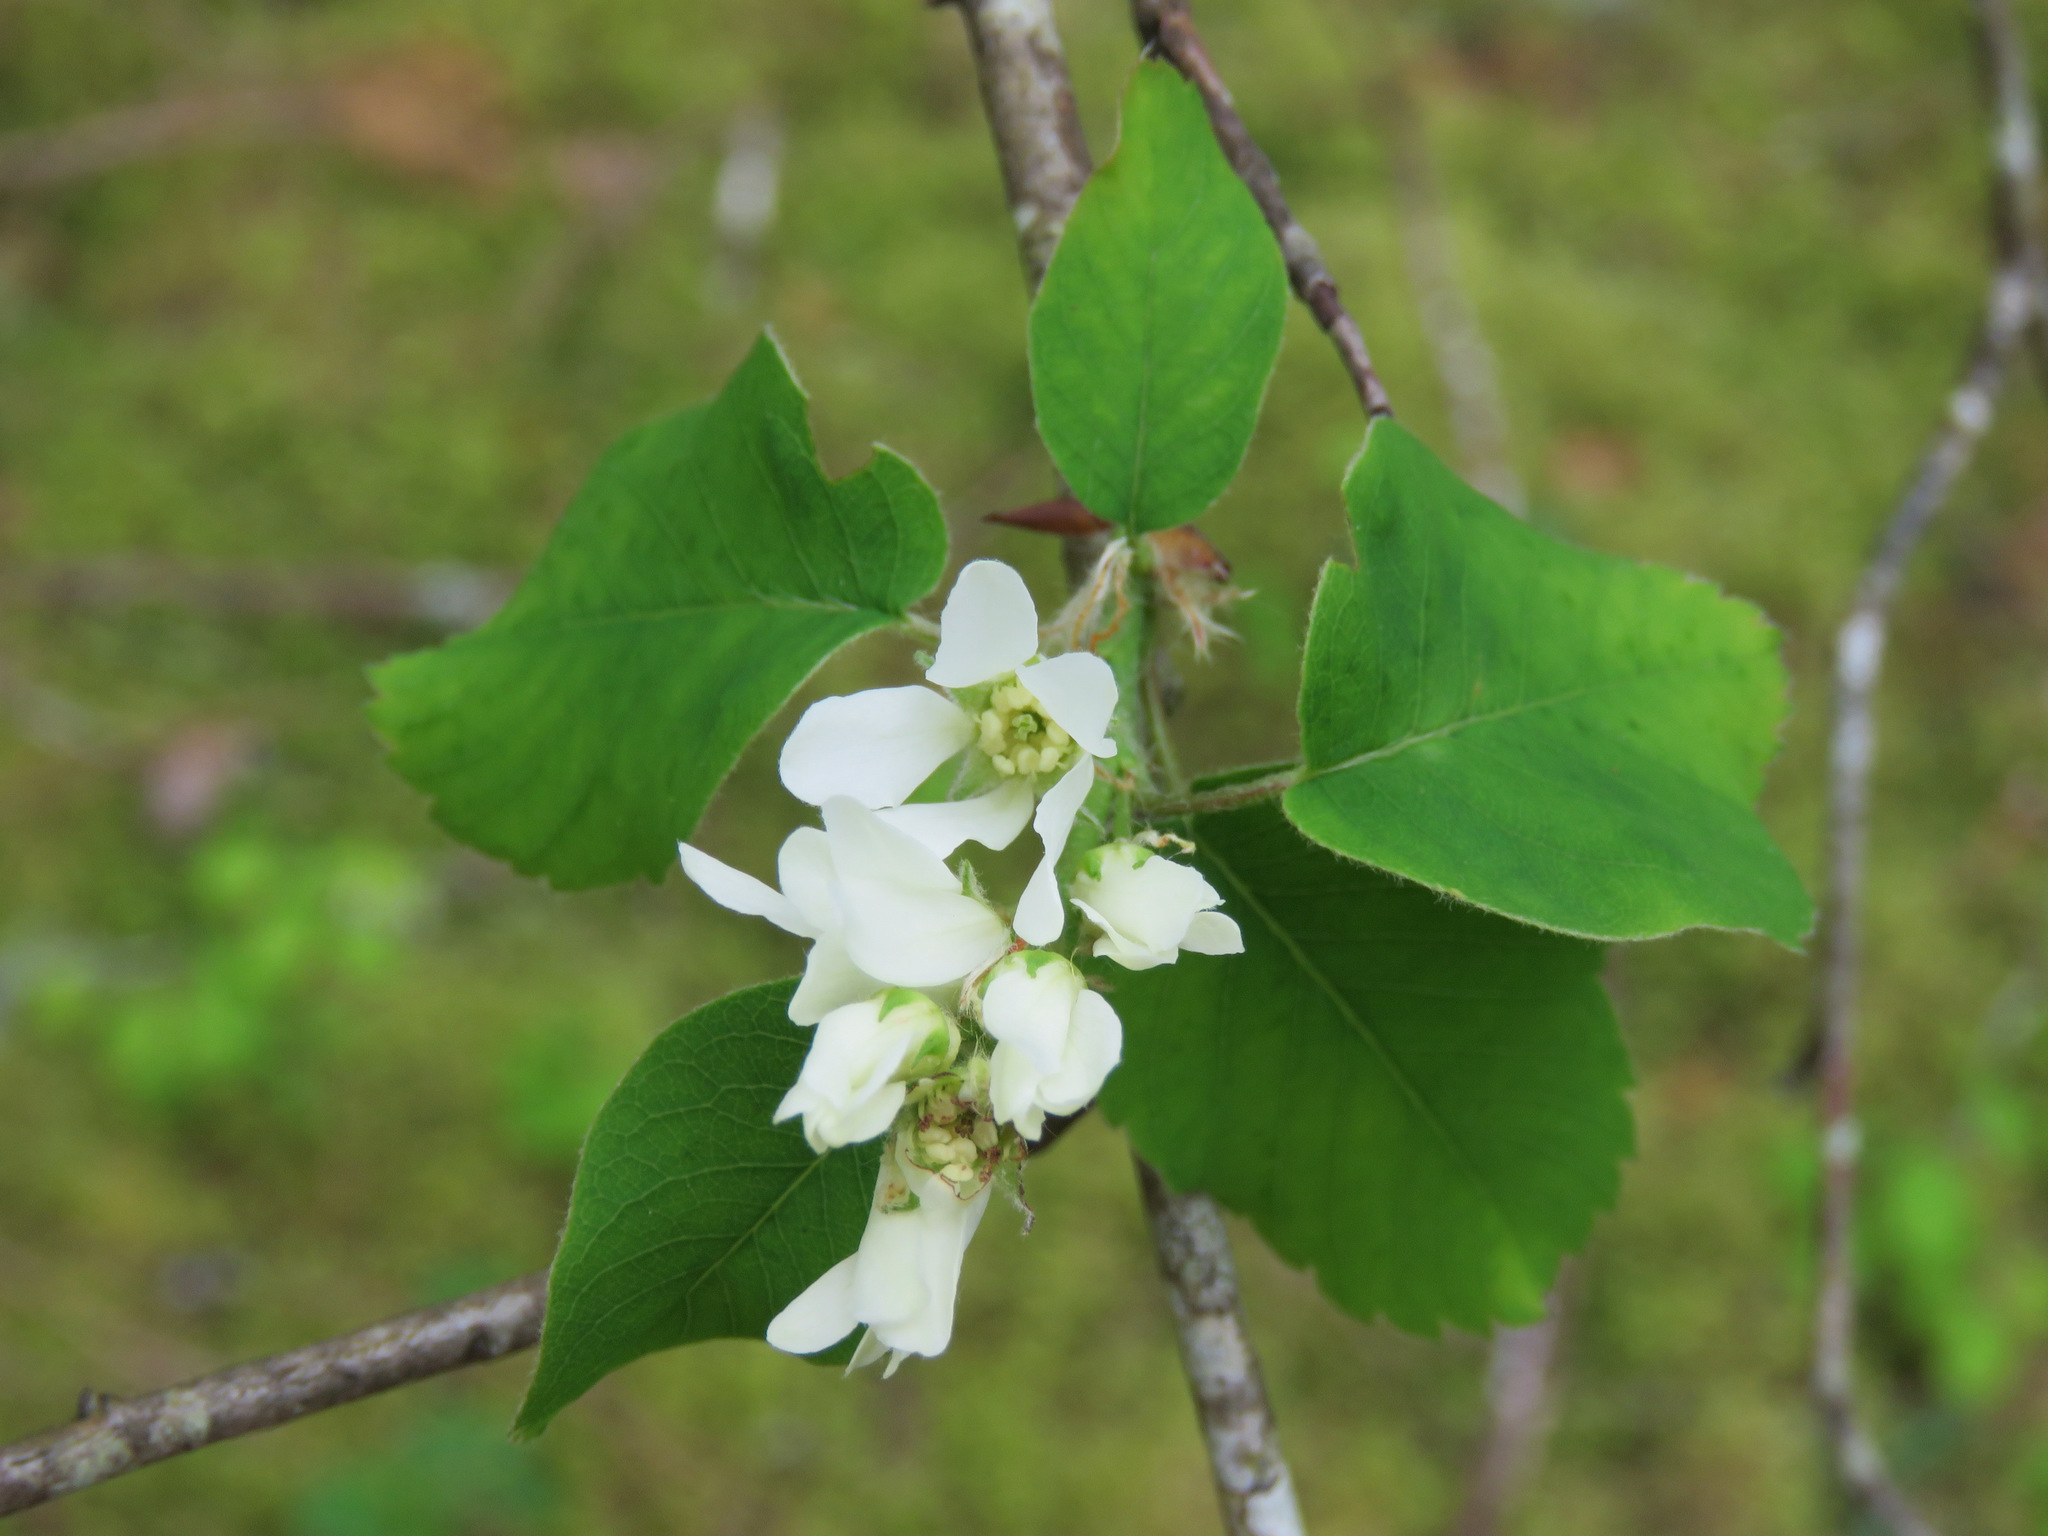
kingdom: Plantae
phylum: Tracheophyta
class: Magnoliopsida
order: Rosales
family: Rosaceae
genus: Amelanchier
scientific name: Amelanchier alnifolia
